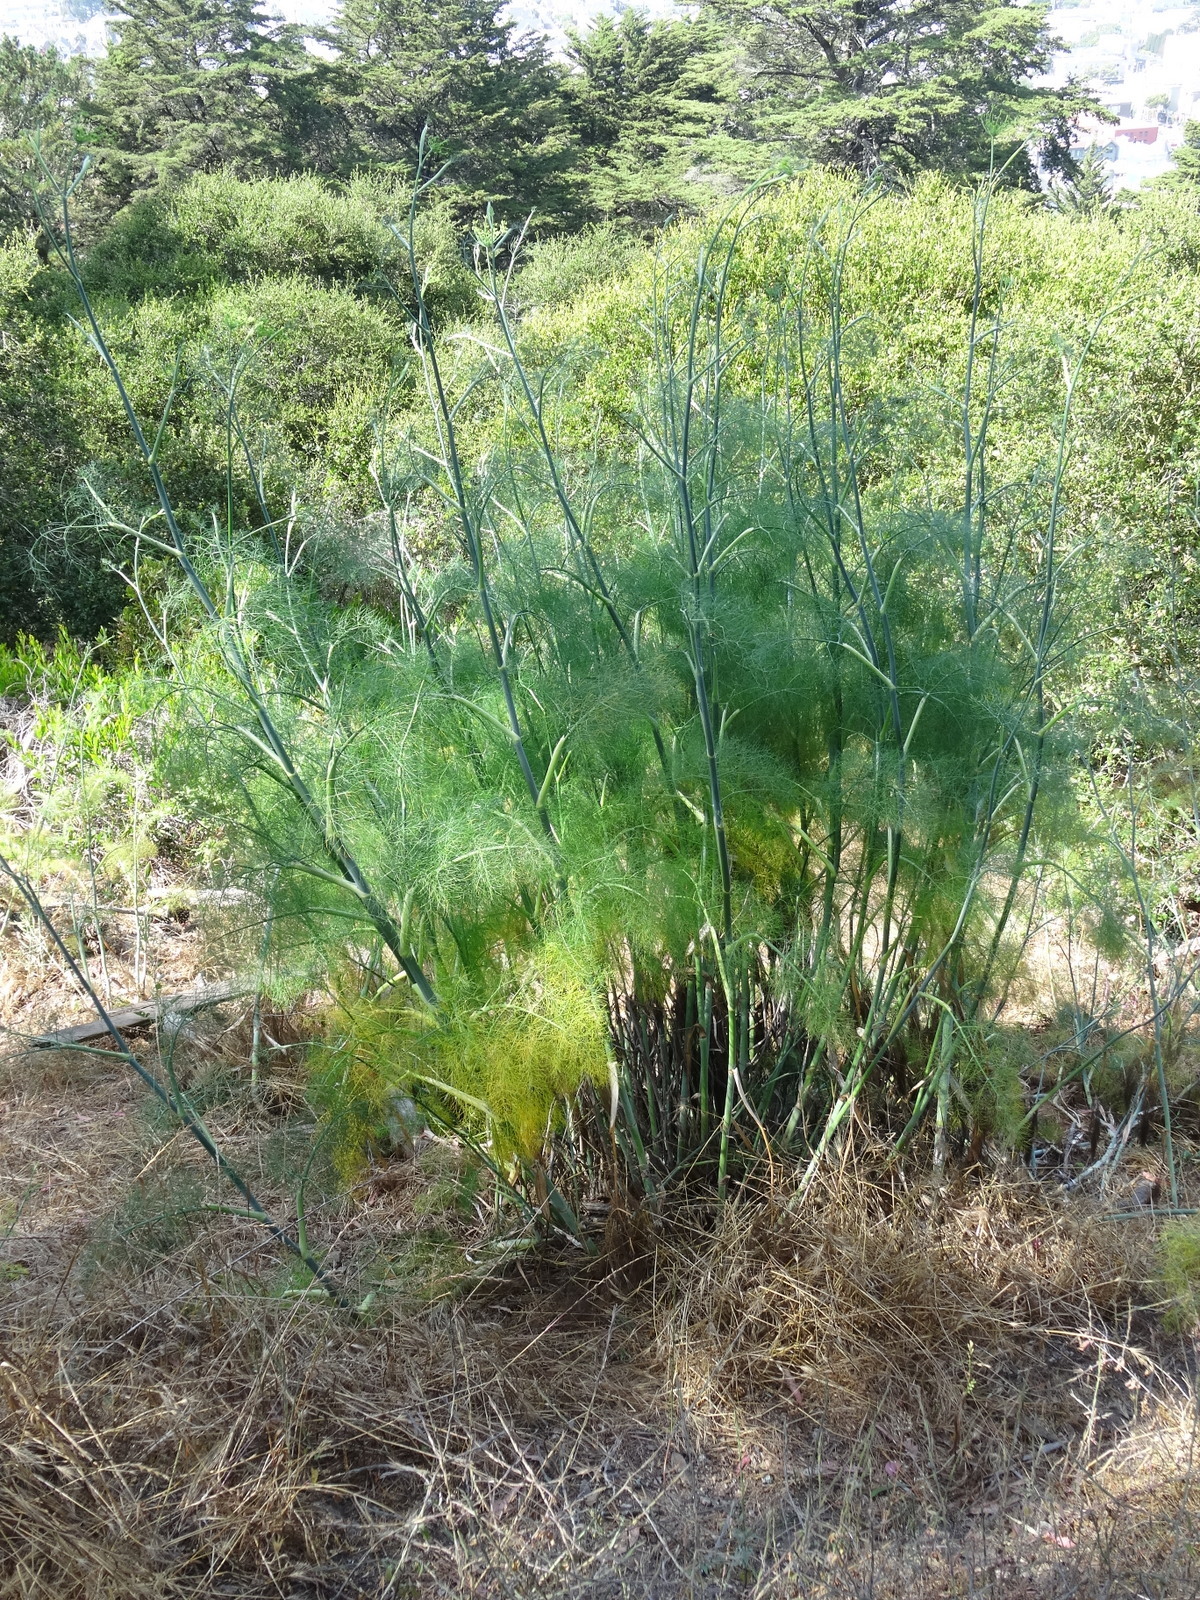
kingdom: Plantae
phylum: Tracheophyta
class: Magnoliopsida
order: Apiales
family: Apiaceae
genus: Foeniculum
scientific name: Foeniculum vulgare
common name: Fennel
